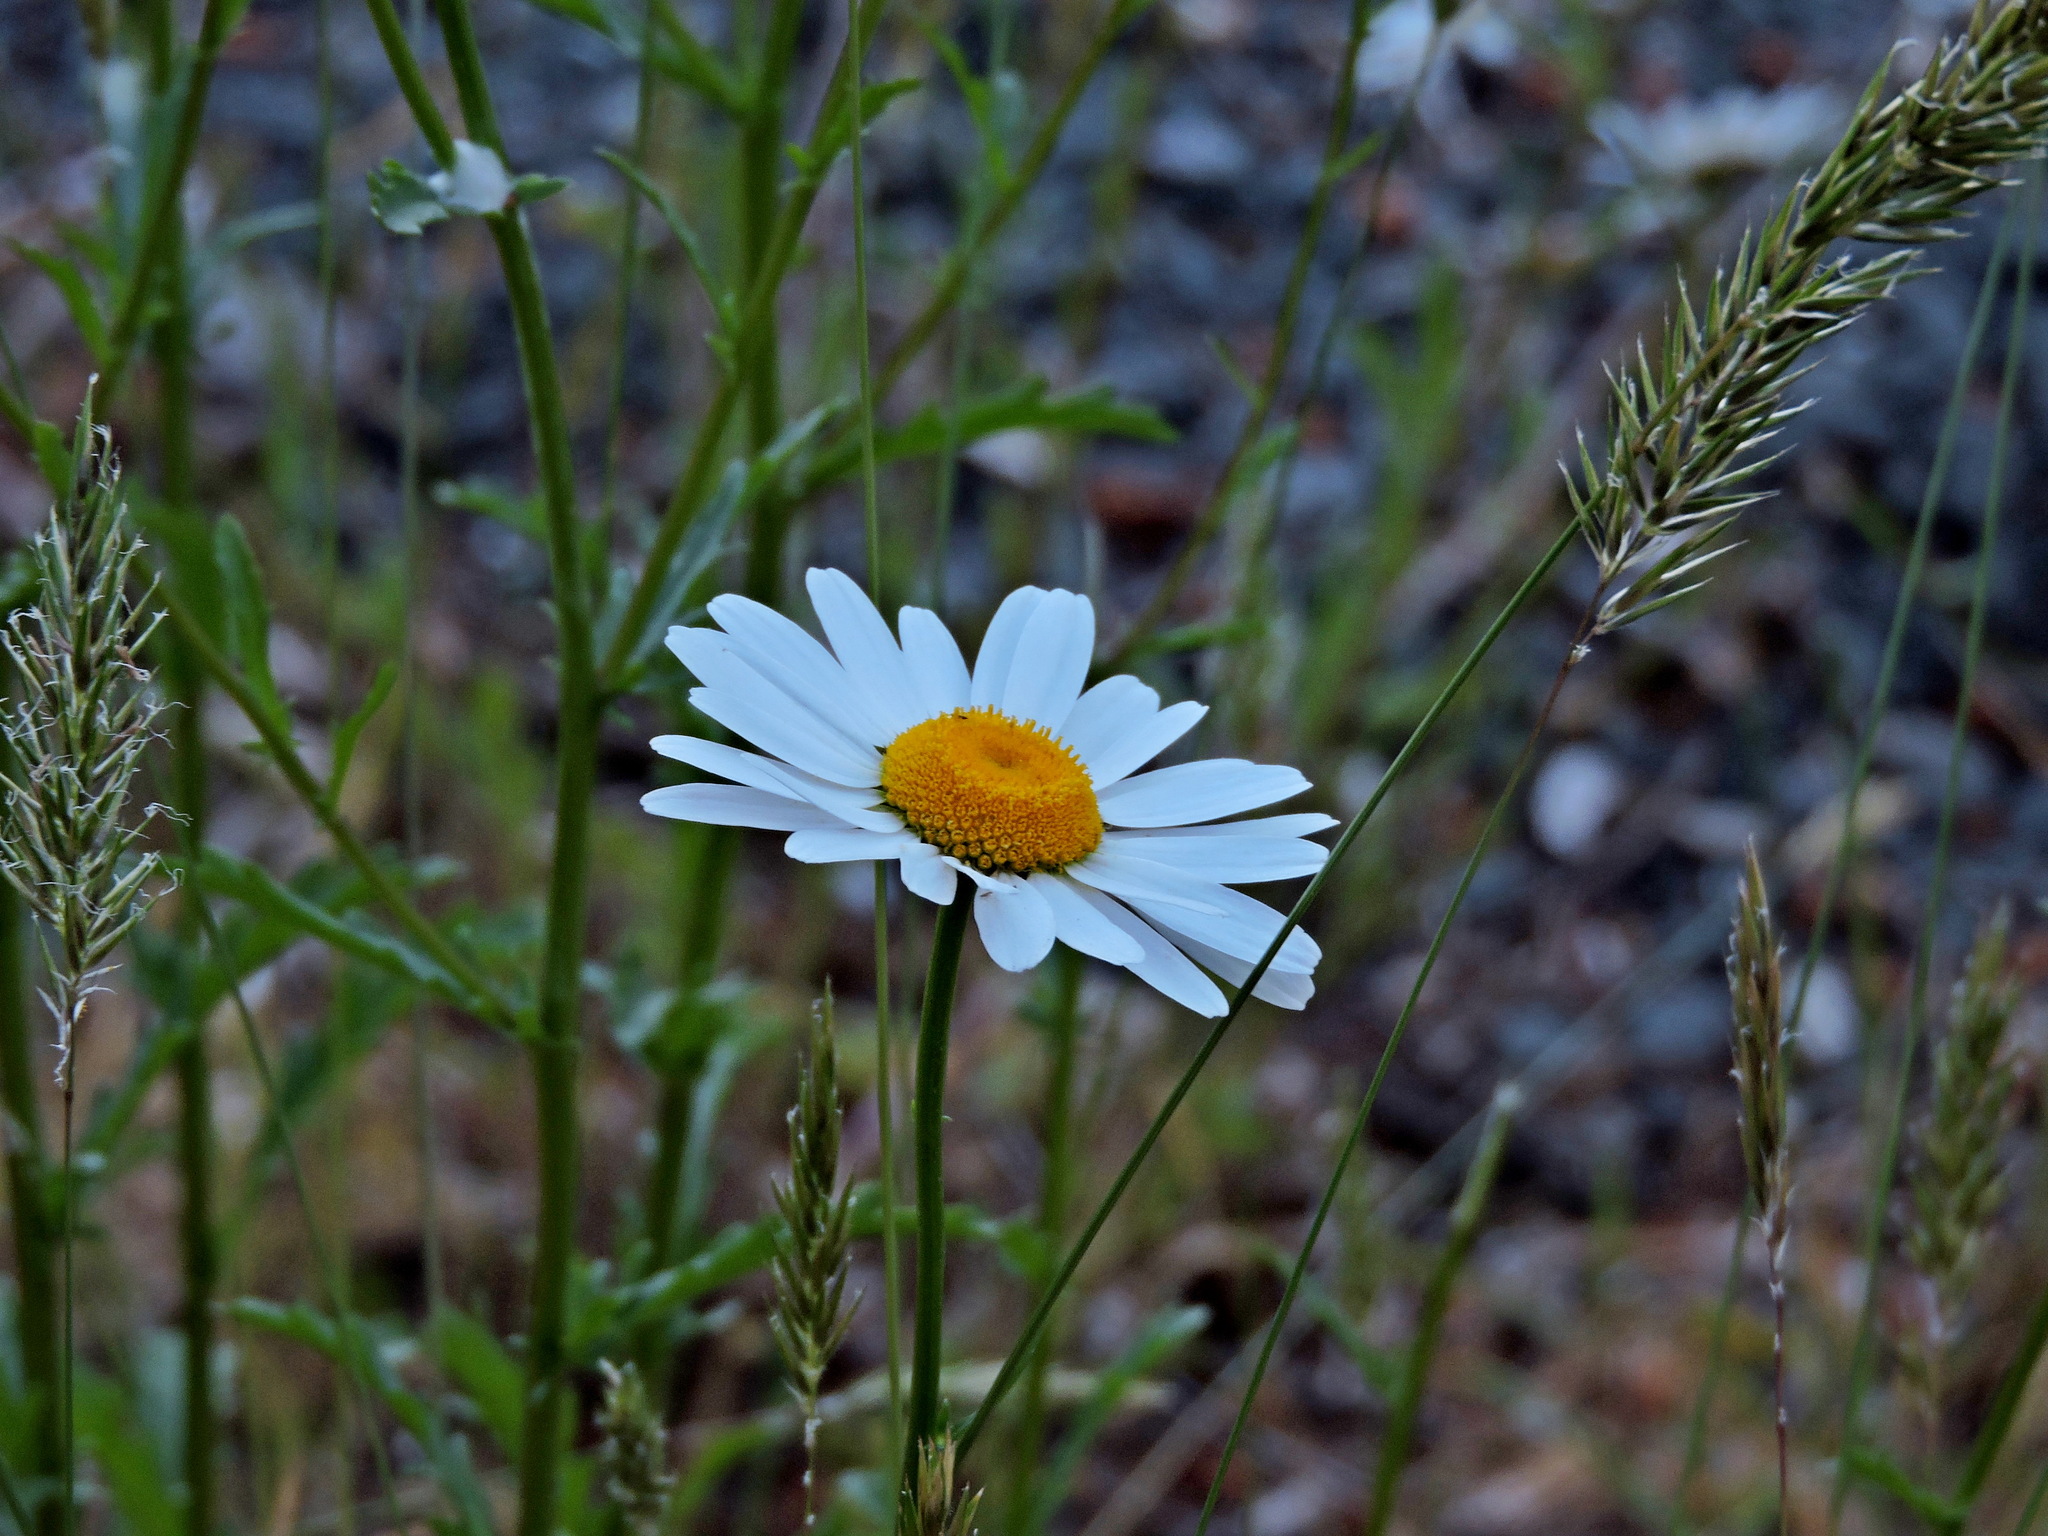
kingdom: Plantae
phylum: Tracheophyta
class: Magnoliopsida
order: Asterales
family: Asteraceae
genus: Leucanthemum
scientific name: Leucanthemum vulgare
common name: Oxeye daisy
